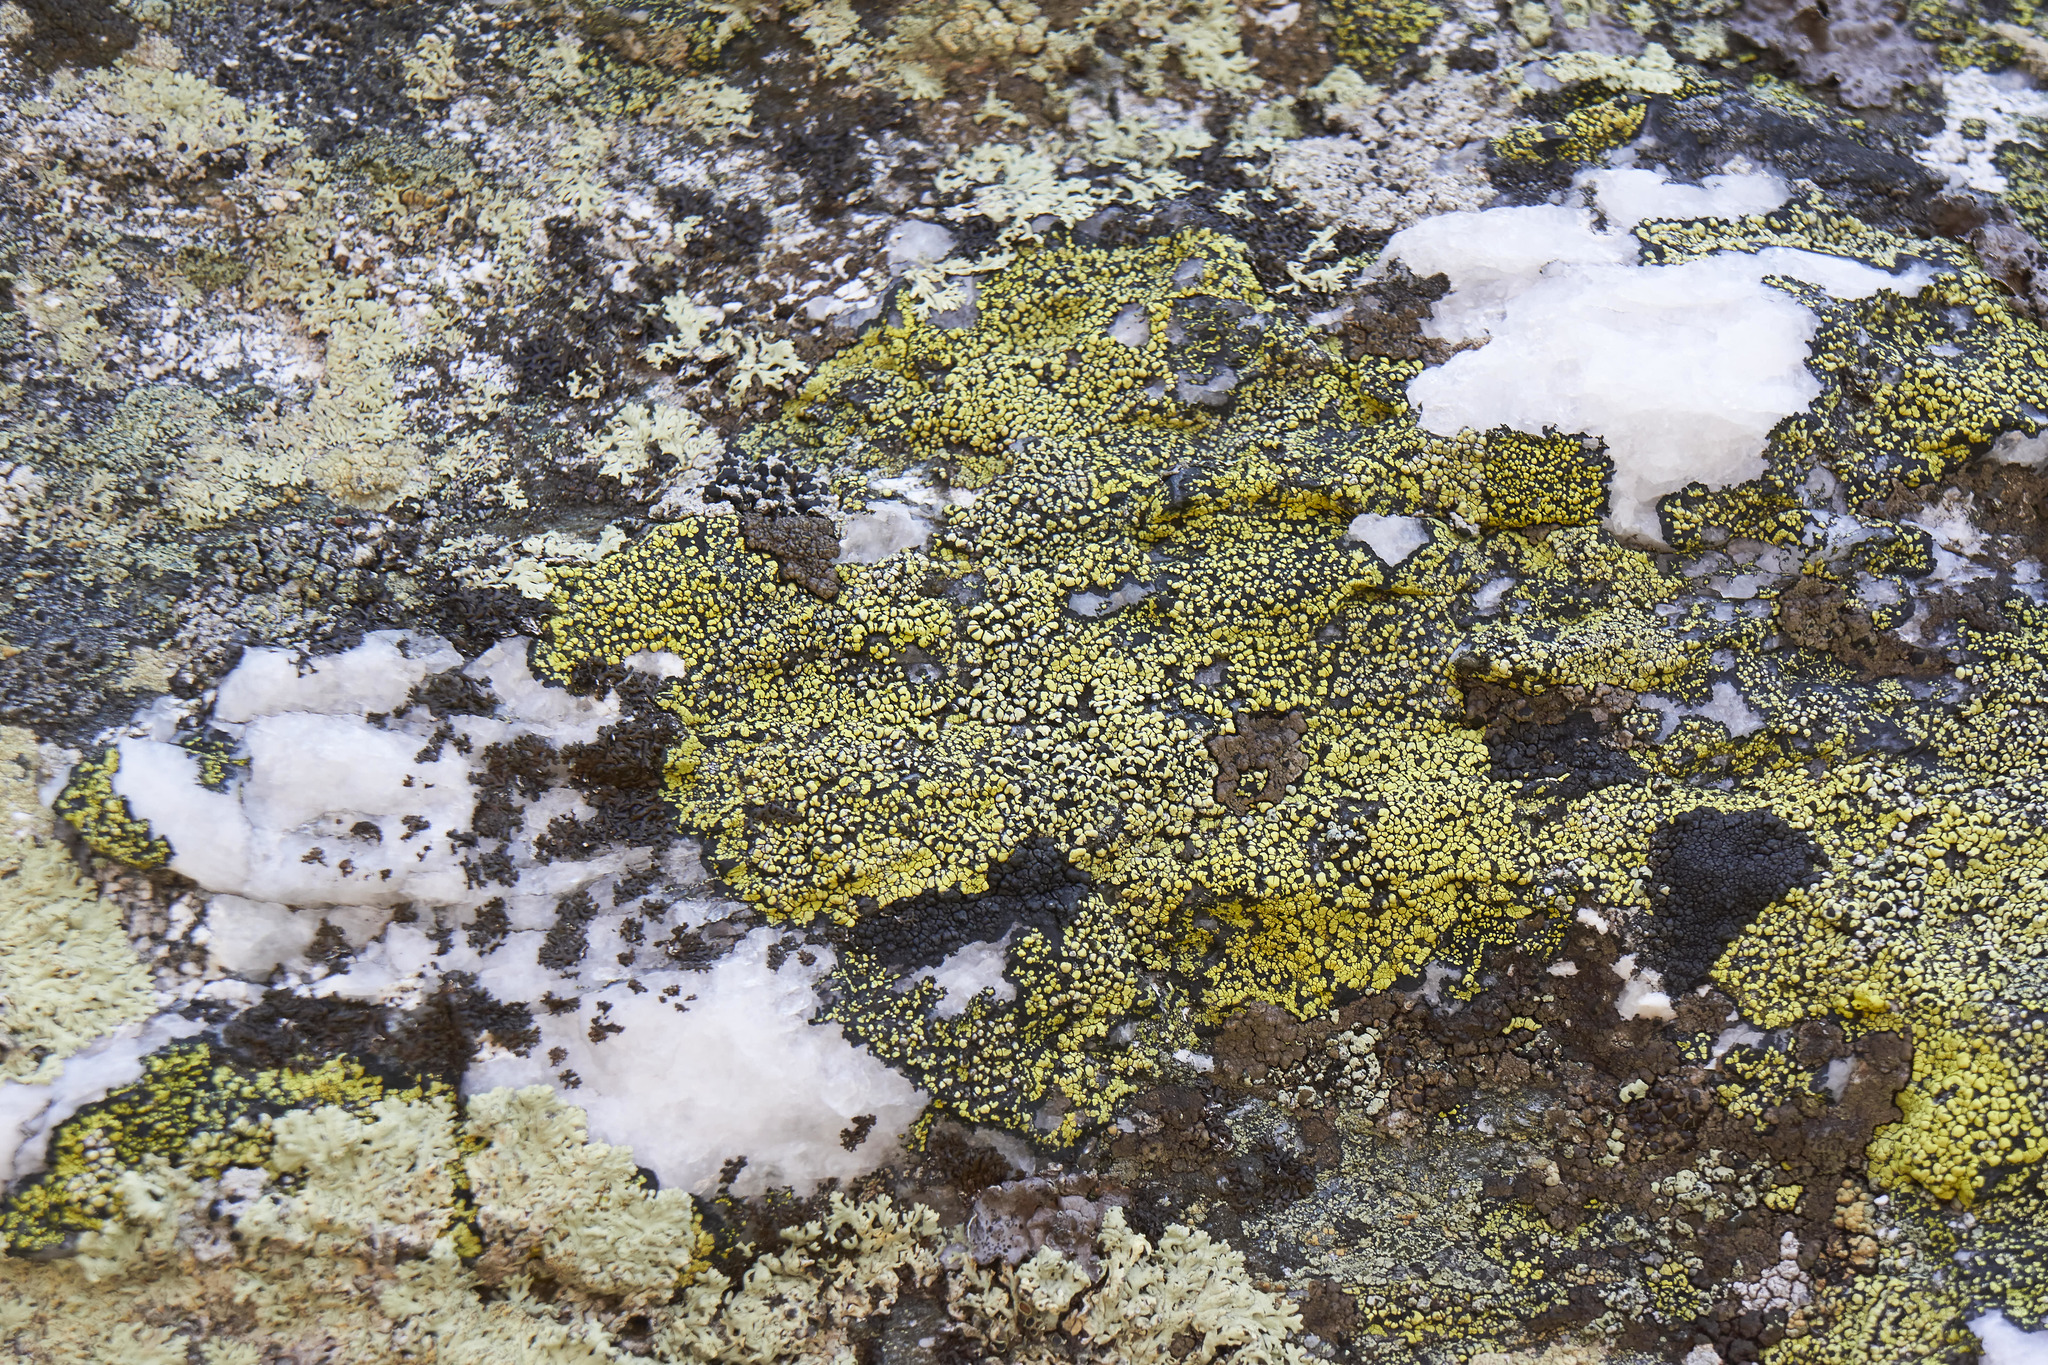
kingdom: Fungi
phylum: Ascomycota
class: Lecanoromycetes
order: Rhizocarpales
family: Rhizocarpaceae
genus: Rhizocarpon
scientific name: Rhizocarpon geographicum
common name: Yellow map lichen
